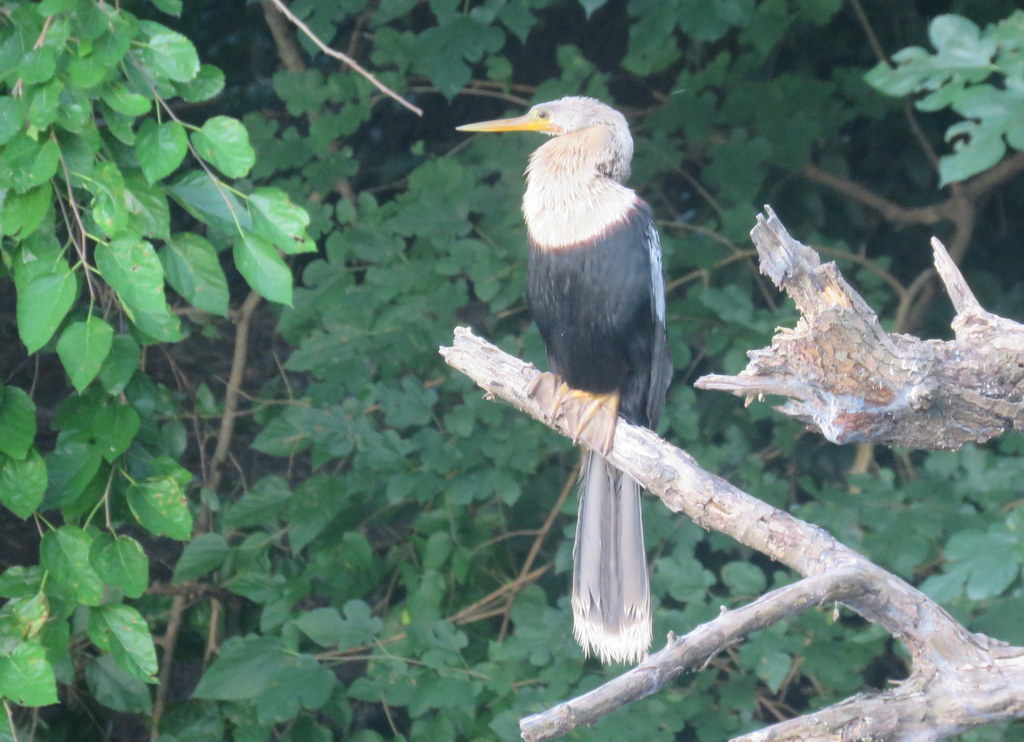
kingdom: Animalia
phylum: Chordata
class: Aves
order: Suliformes
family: Anhingidae
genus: Anhinga
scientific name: Anhinga anhinga
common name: Anhinga
